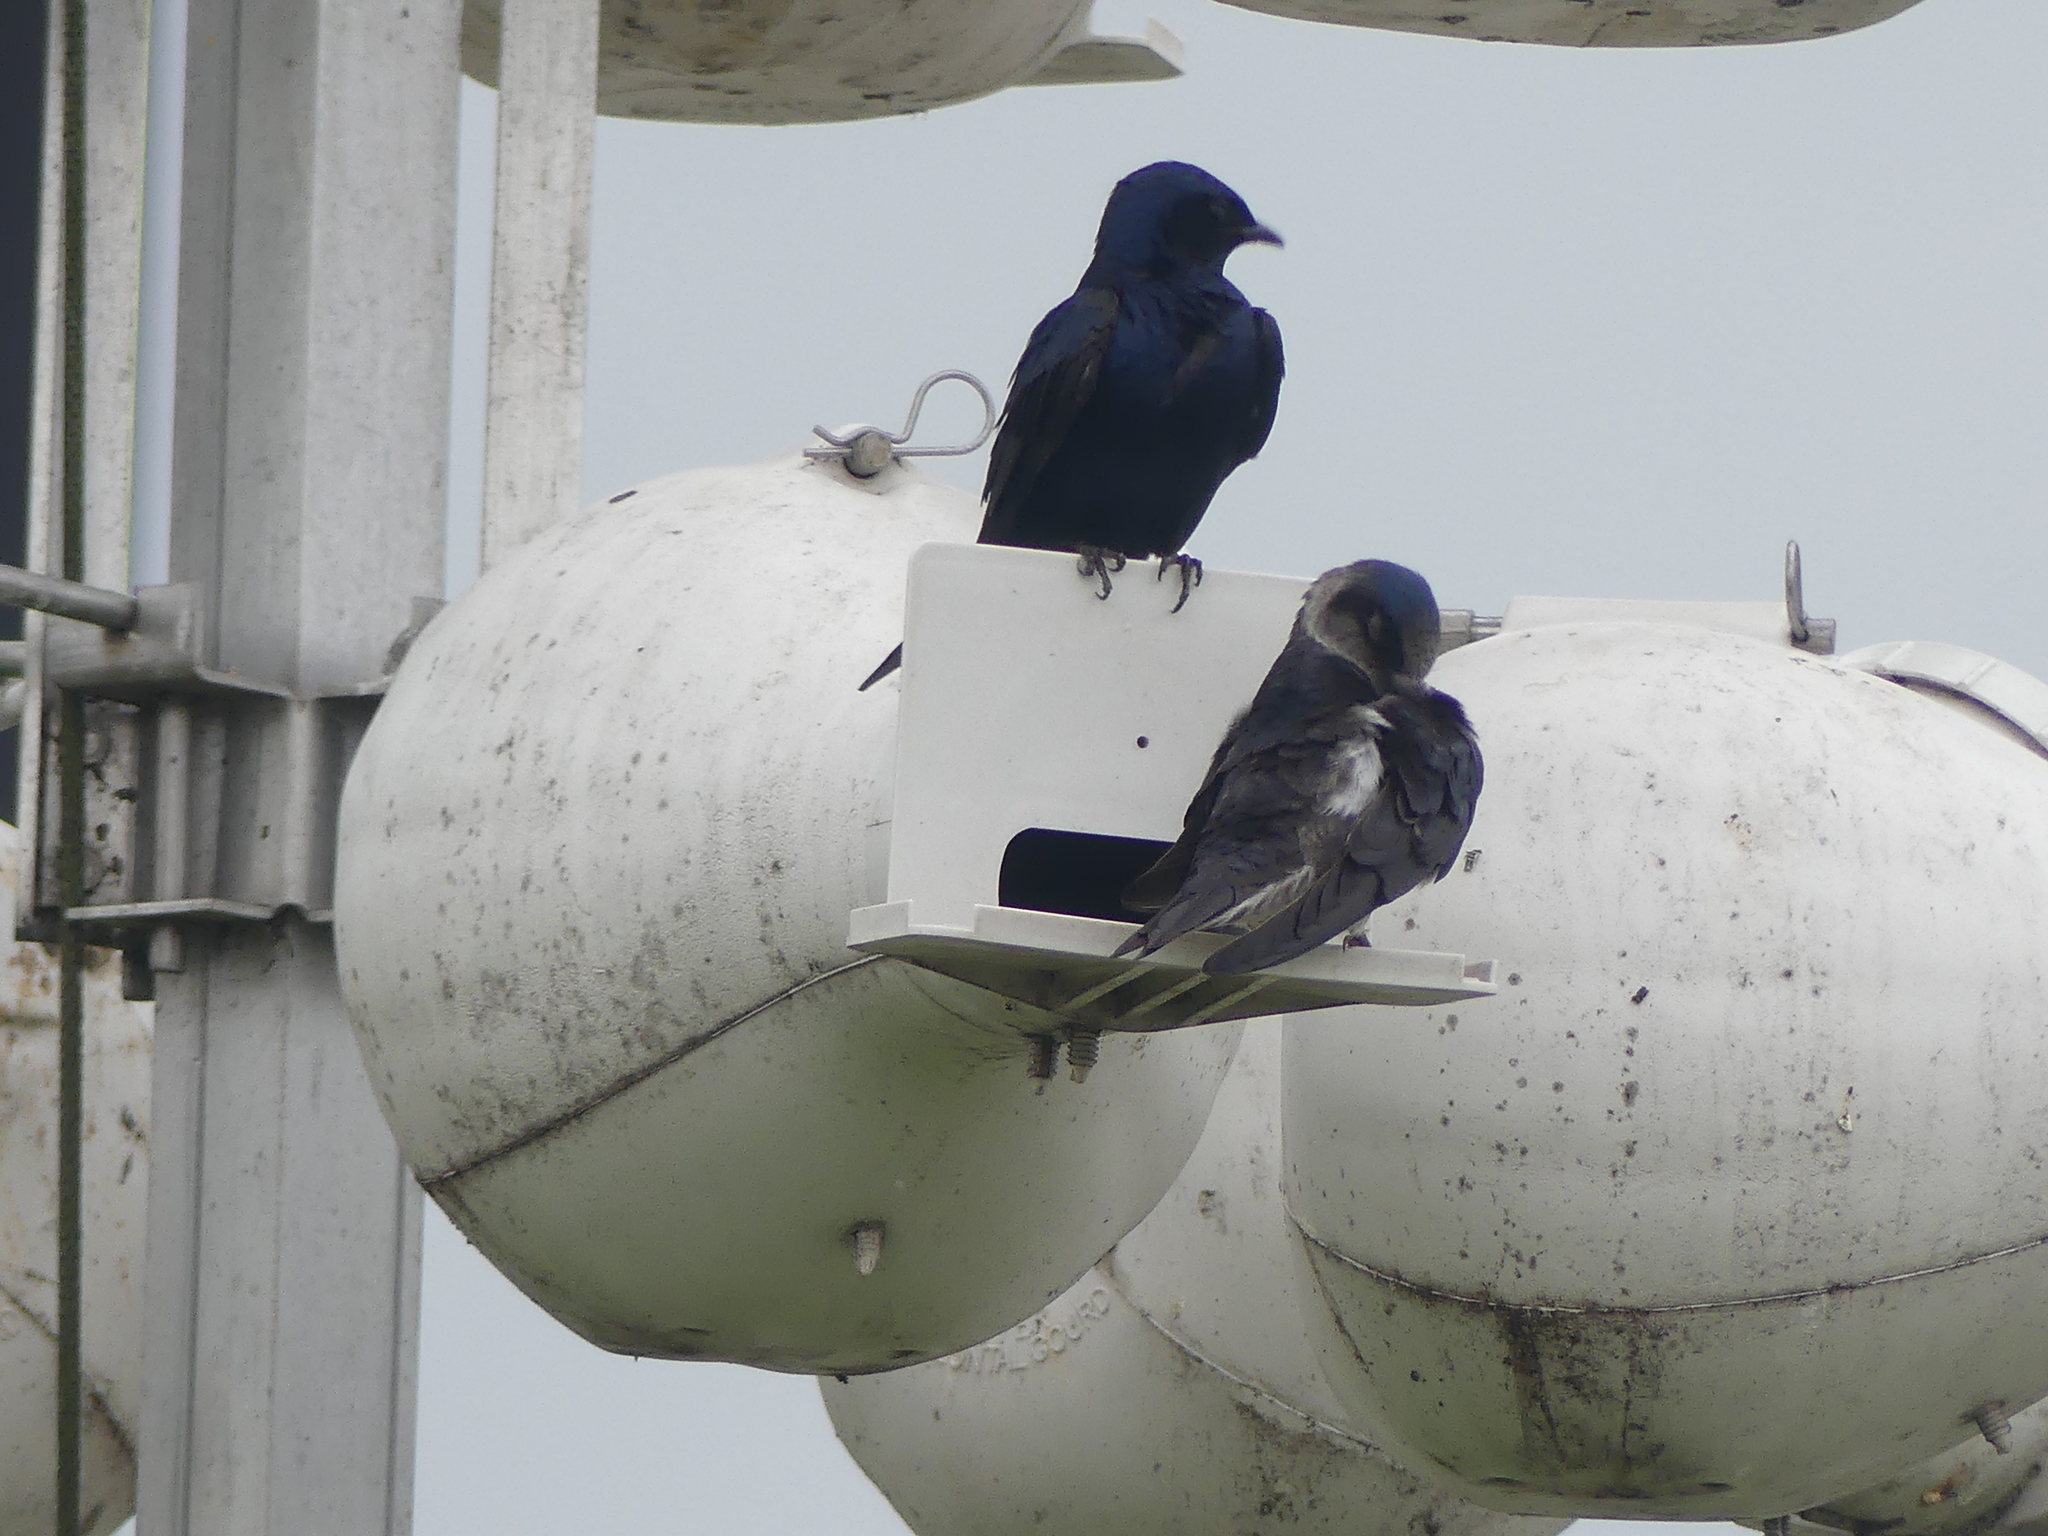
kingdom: Animalia
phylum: Chordata
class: Aves
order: Passeriformes
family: Hirundinidae
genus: Progne
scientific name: Progne subis
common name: Purple martin
